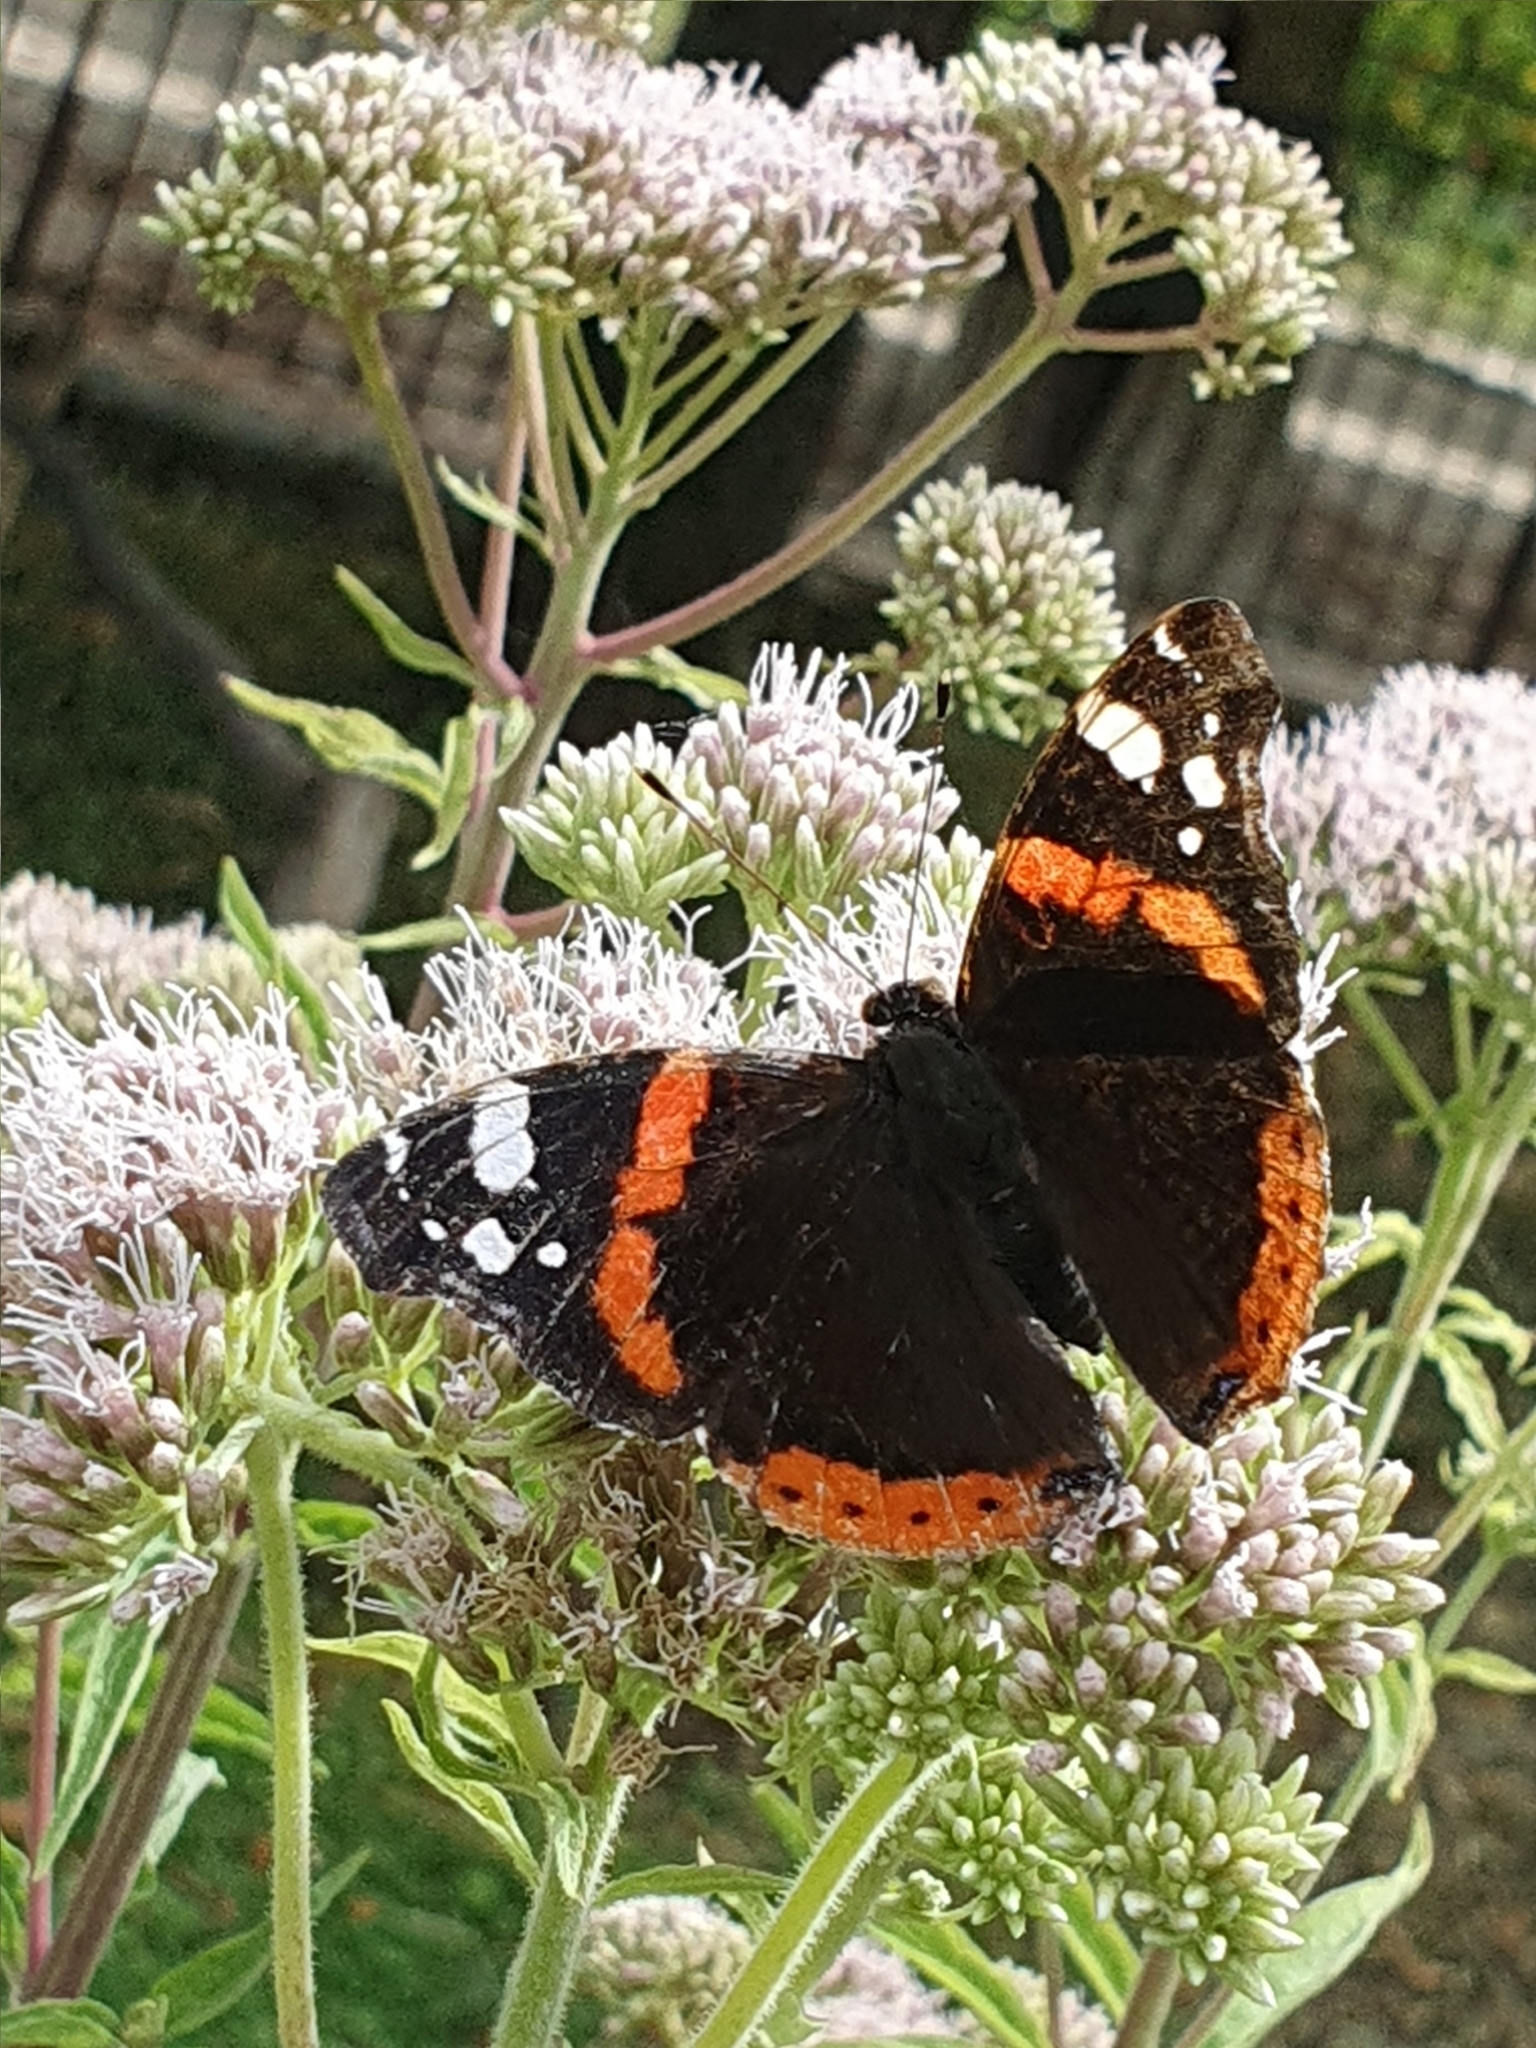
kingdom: Animalia
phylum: Arthropoda
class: Insecta
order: Lepidoptera
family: Nymphalidae
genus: Vanessa
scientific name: Vanessa atalanta
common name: Red admiral
